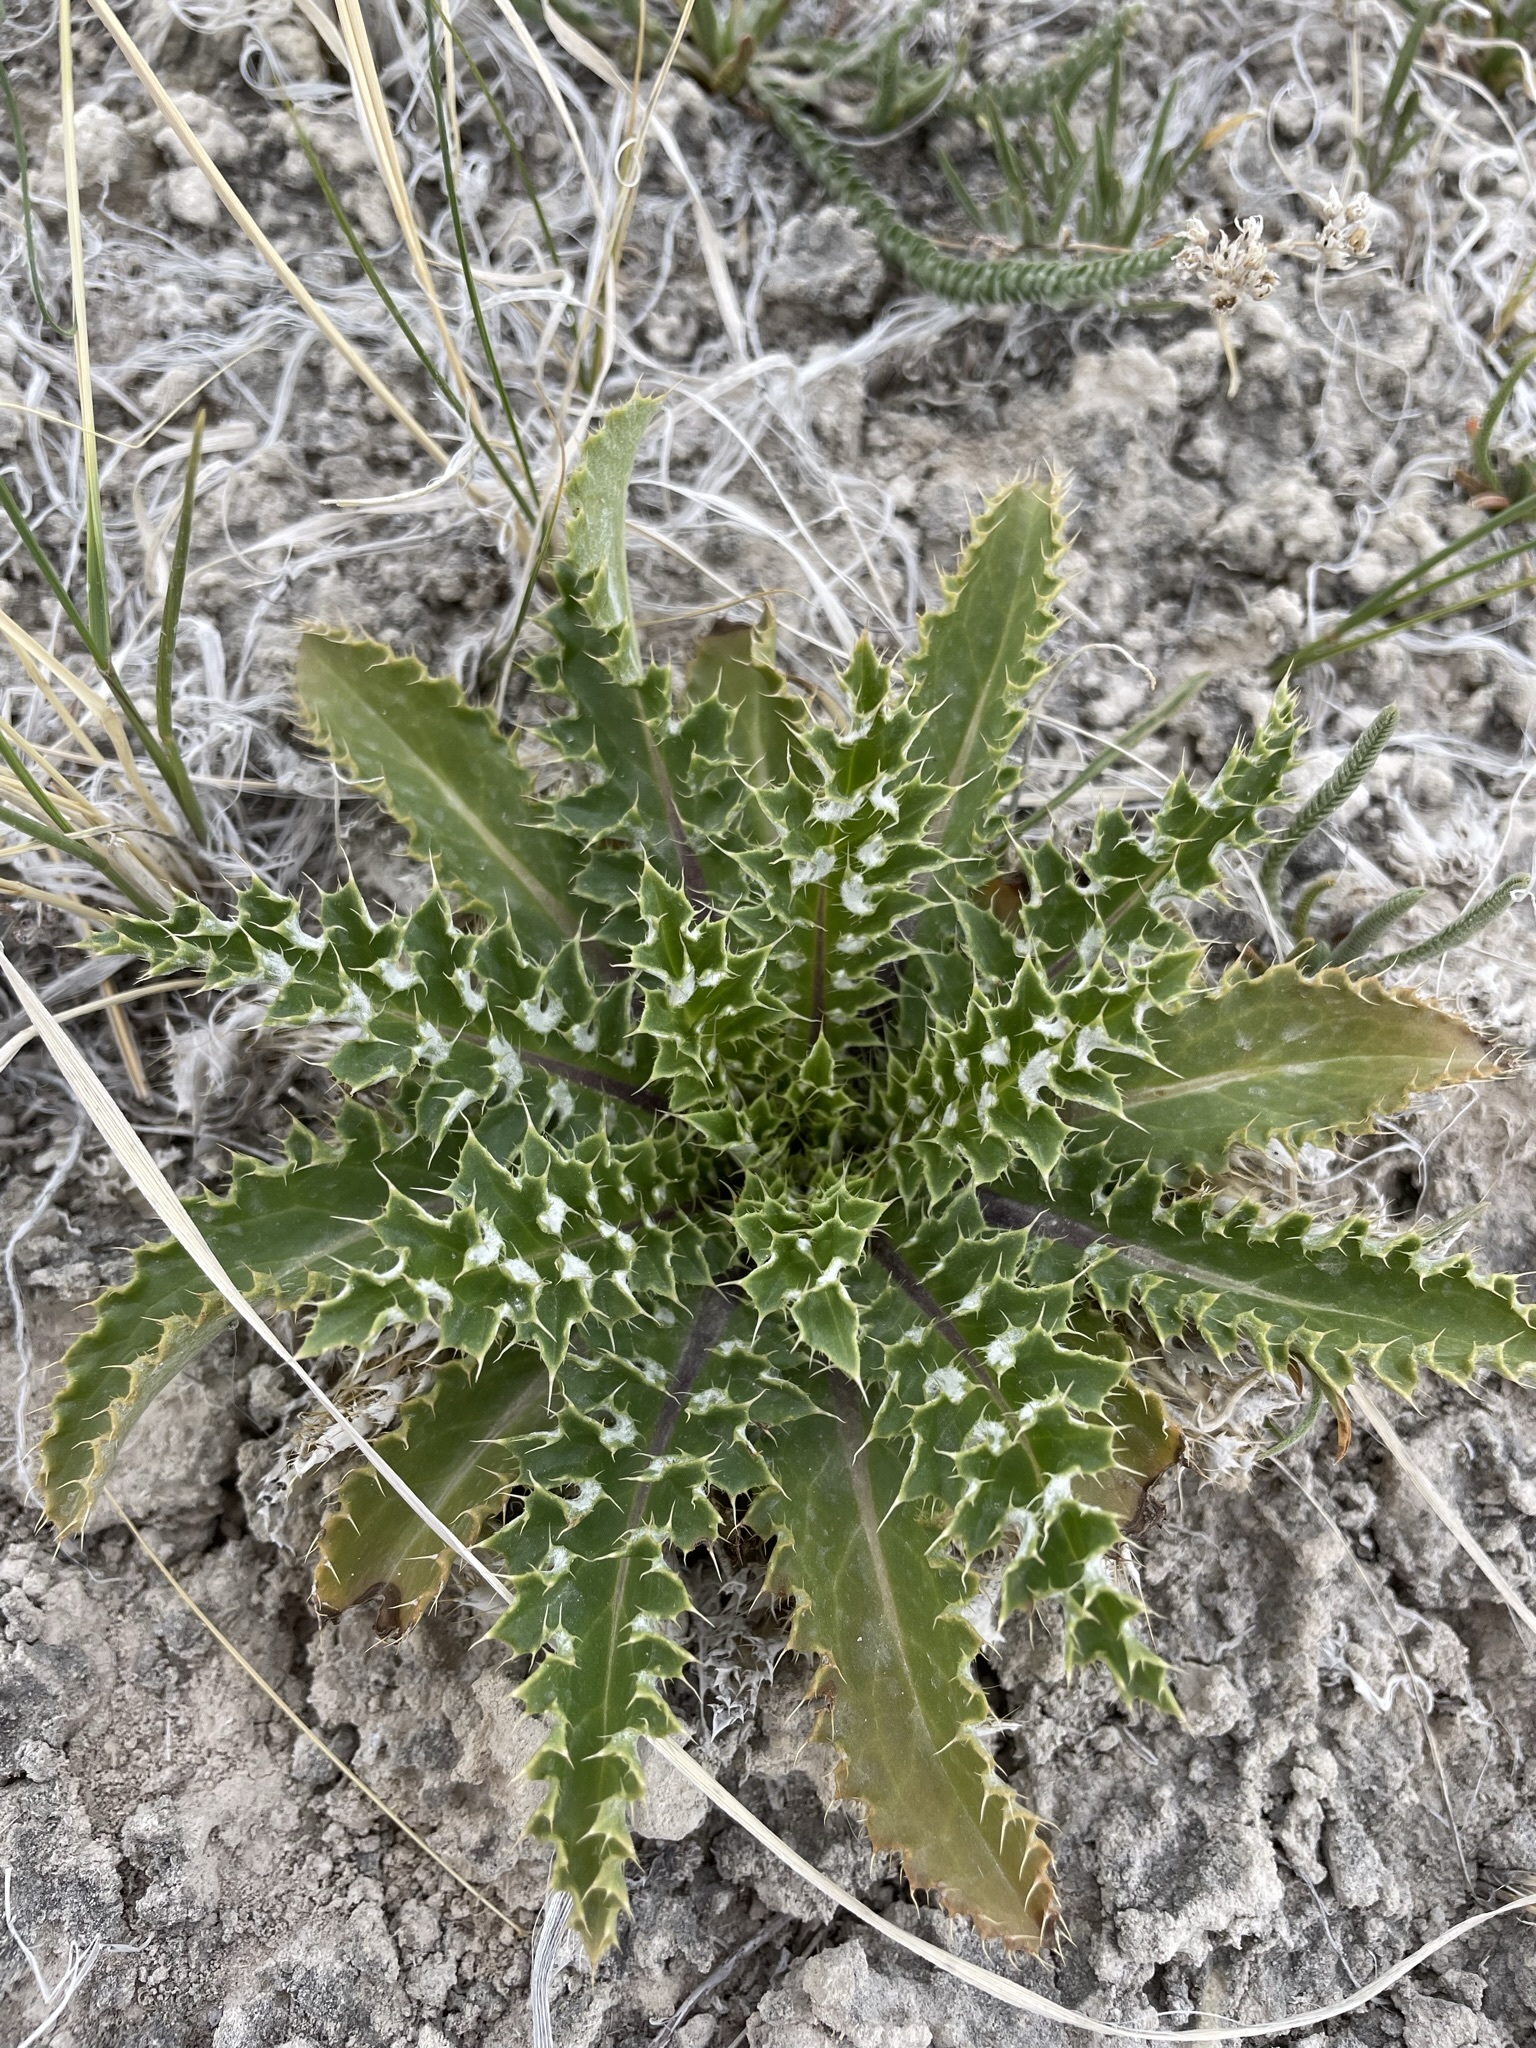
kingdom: Plantae
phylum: Tracheophyta
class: Magnoliopsida
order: Asterales
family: Asteraceae
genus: Carduus
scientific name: Carduus nutans
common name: Musk thistle
